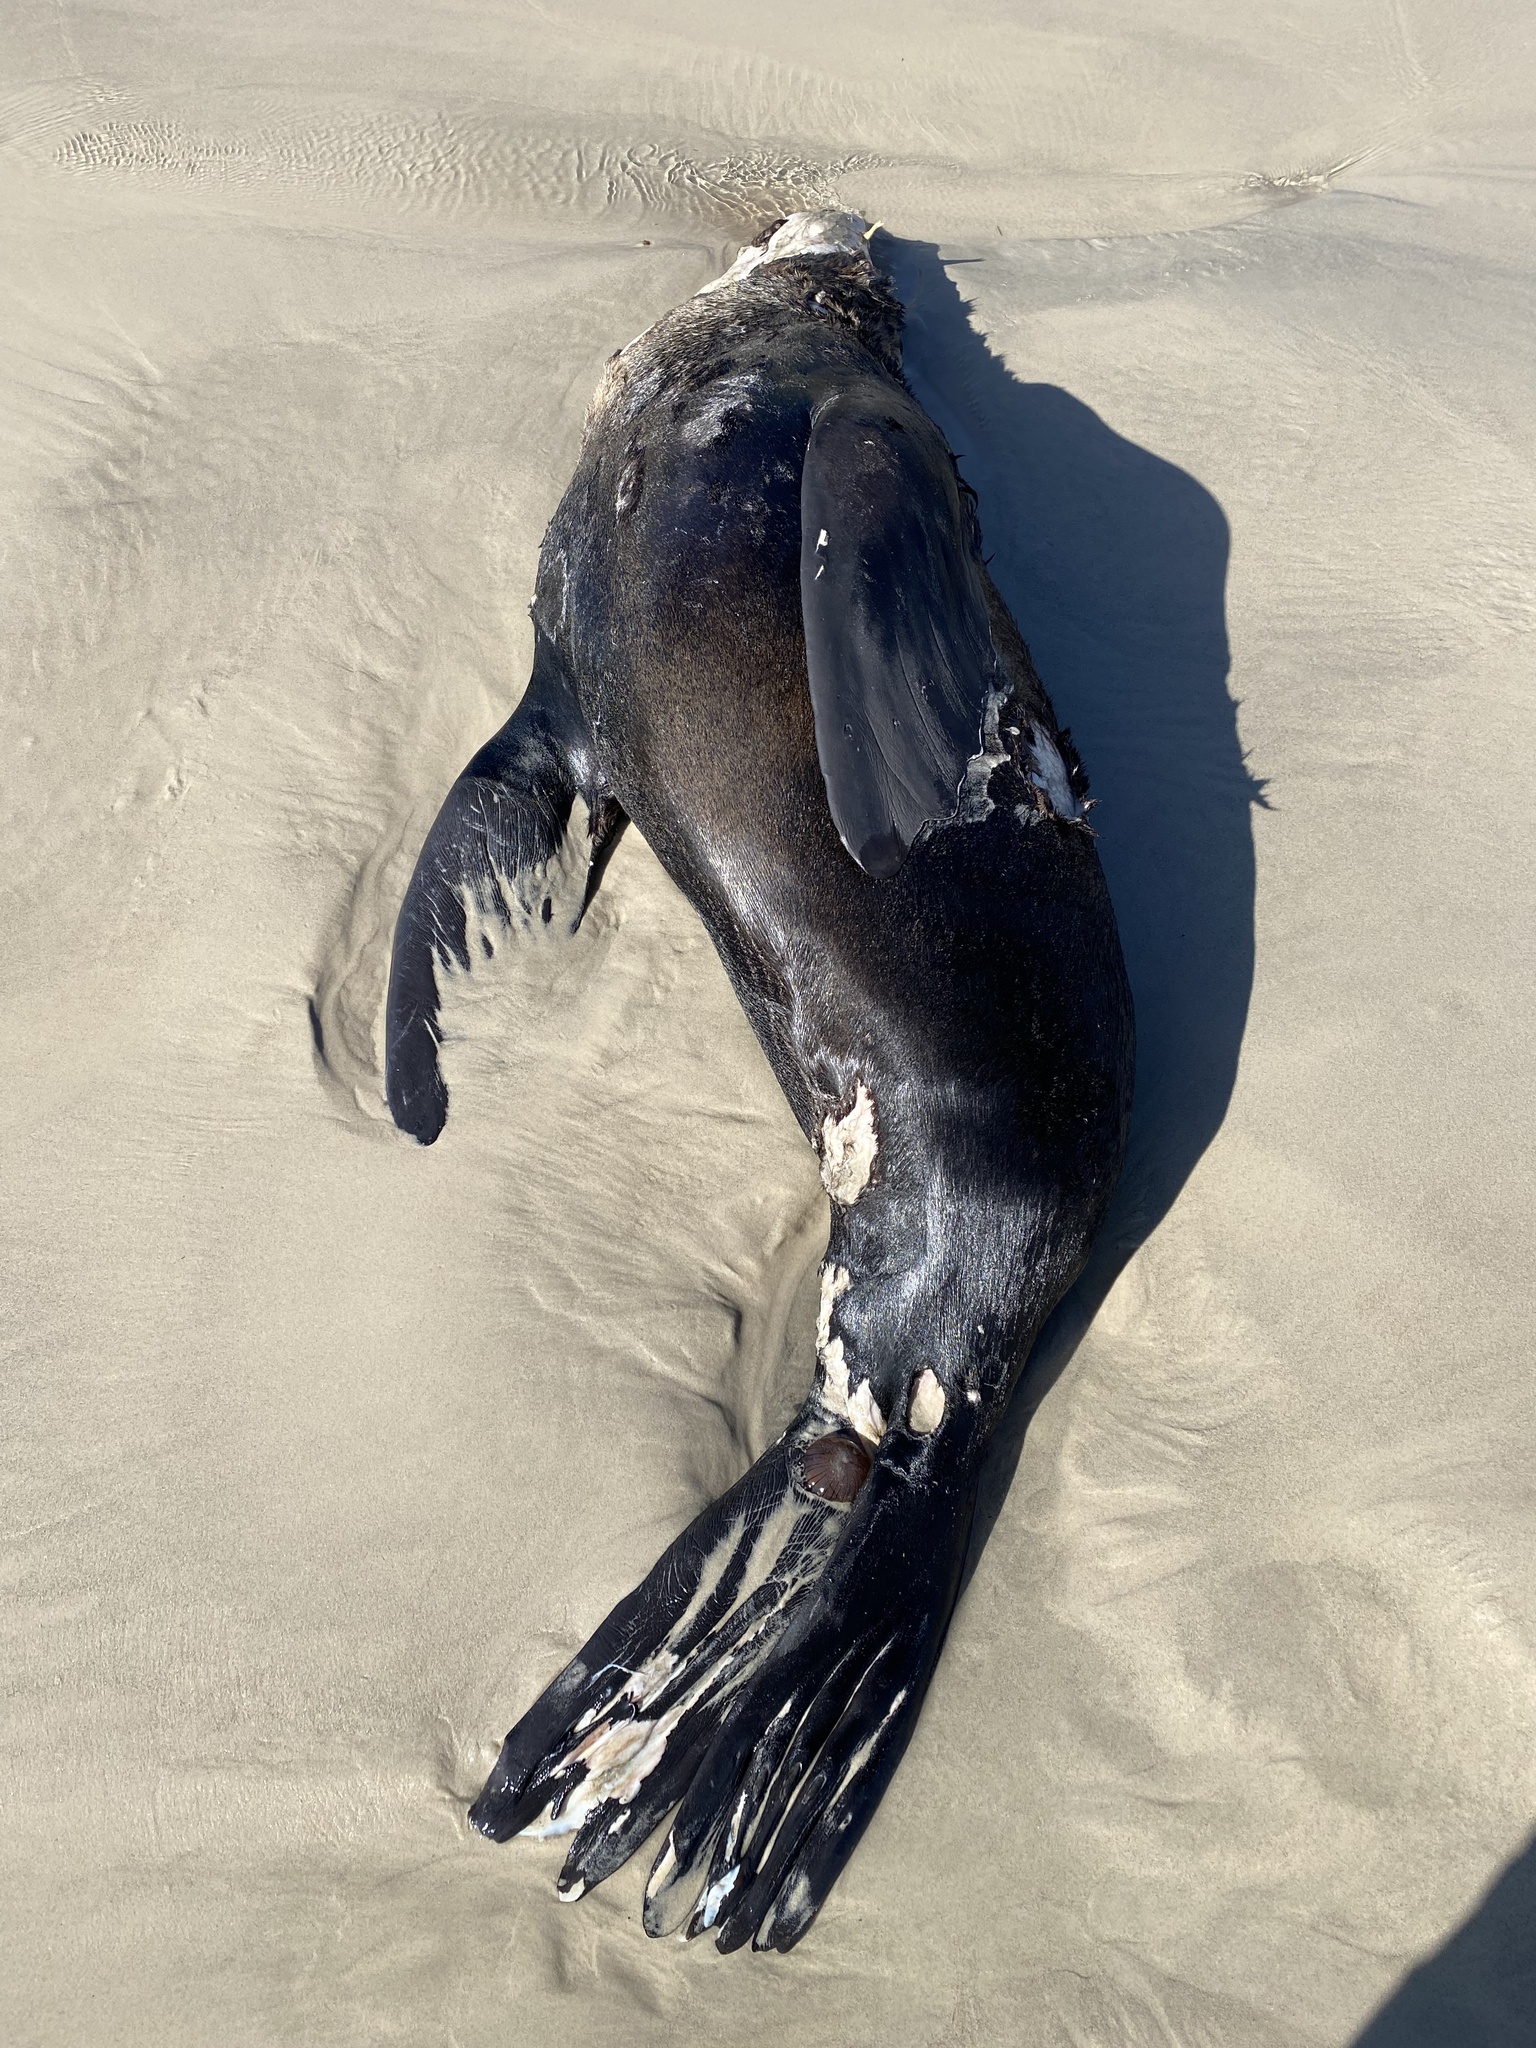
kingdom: Animalia
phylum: Chordata
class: Mammalia
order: Carnivora
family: Otariidae
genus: Arctocephalus
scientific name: Arctocephalus pusillus
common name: Brown fur seal
